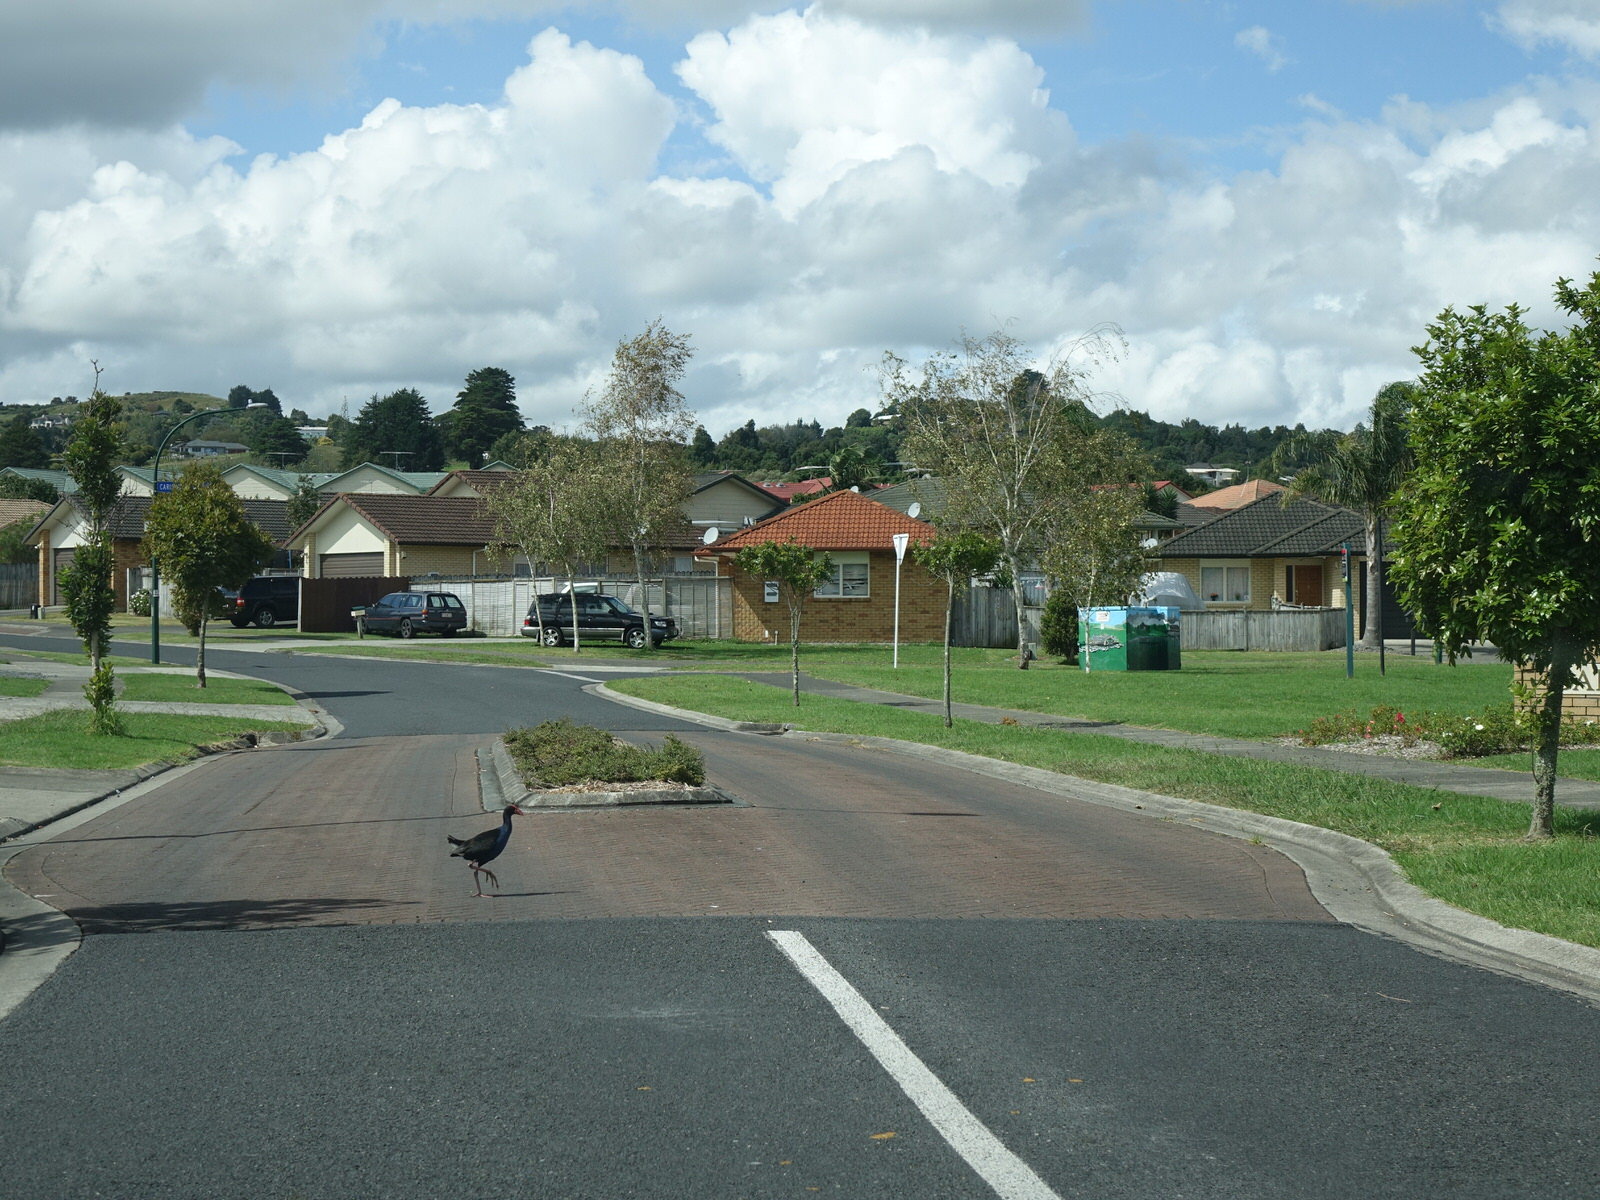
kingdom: Animalia
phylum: Chordata
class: Aves
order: Gruiformes
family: Rallidae
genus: Porphyrio
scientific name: Porphyrio melanotus
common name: Australasian swamphen
